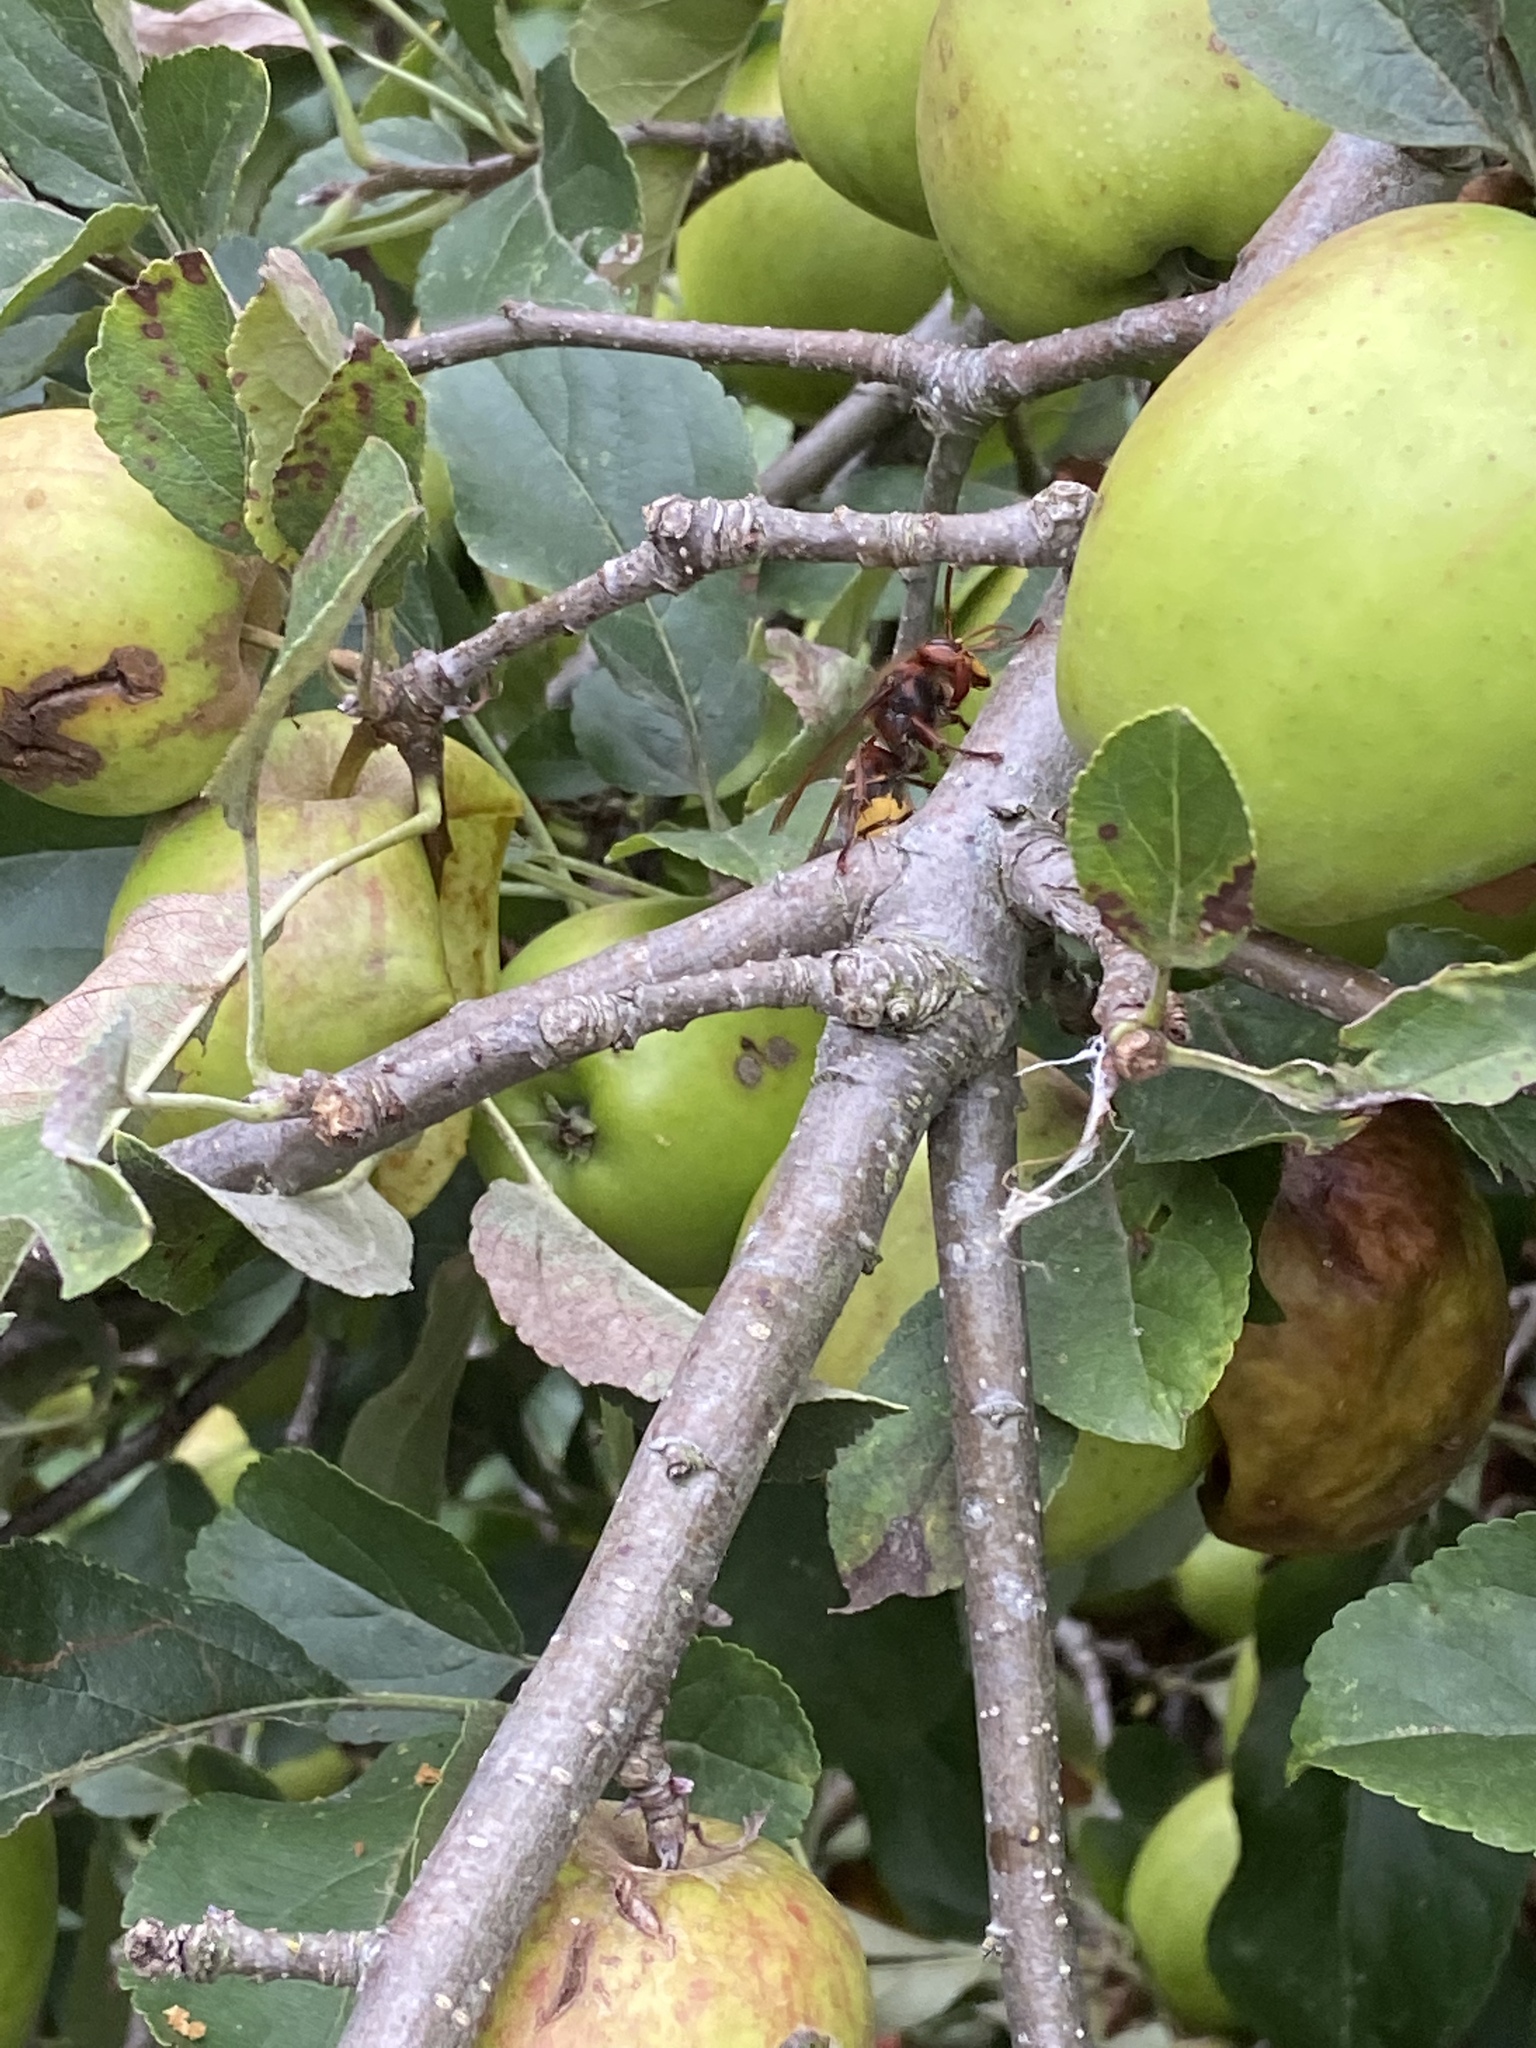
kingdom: Animalia
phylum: Arthropoda
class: Insecta
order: Hymenoptera
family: Vespidae
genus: Vespa
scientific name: Vespa crabro
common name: Hornet
